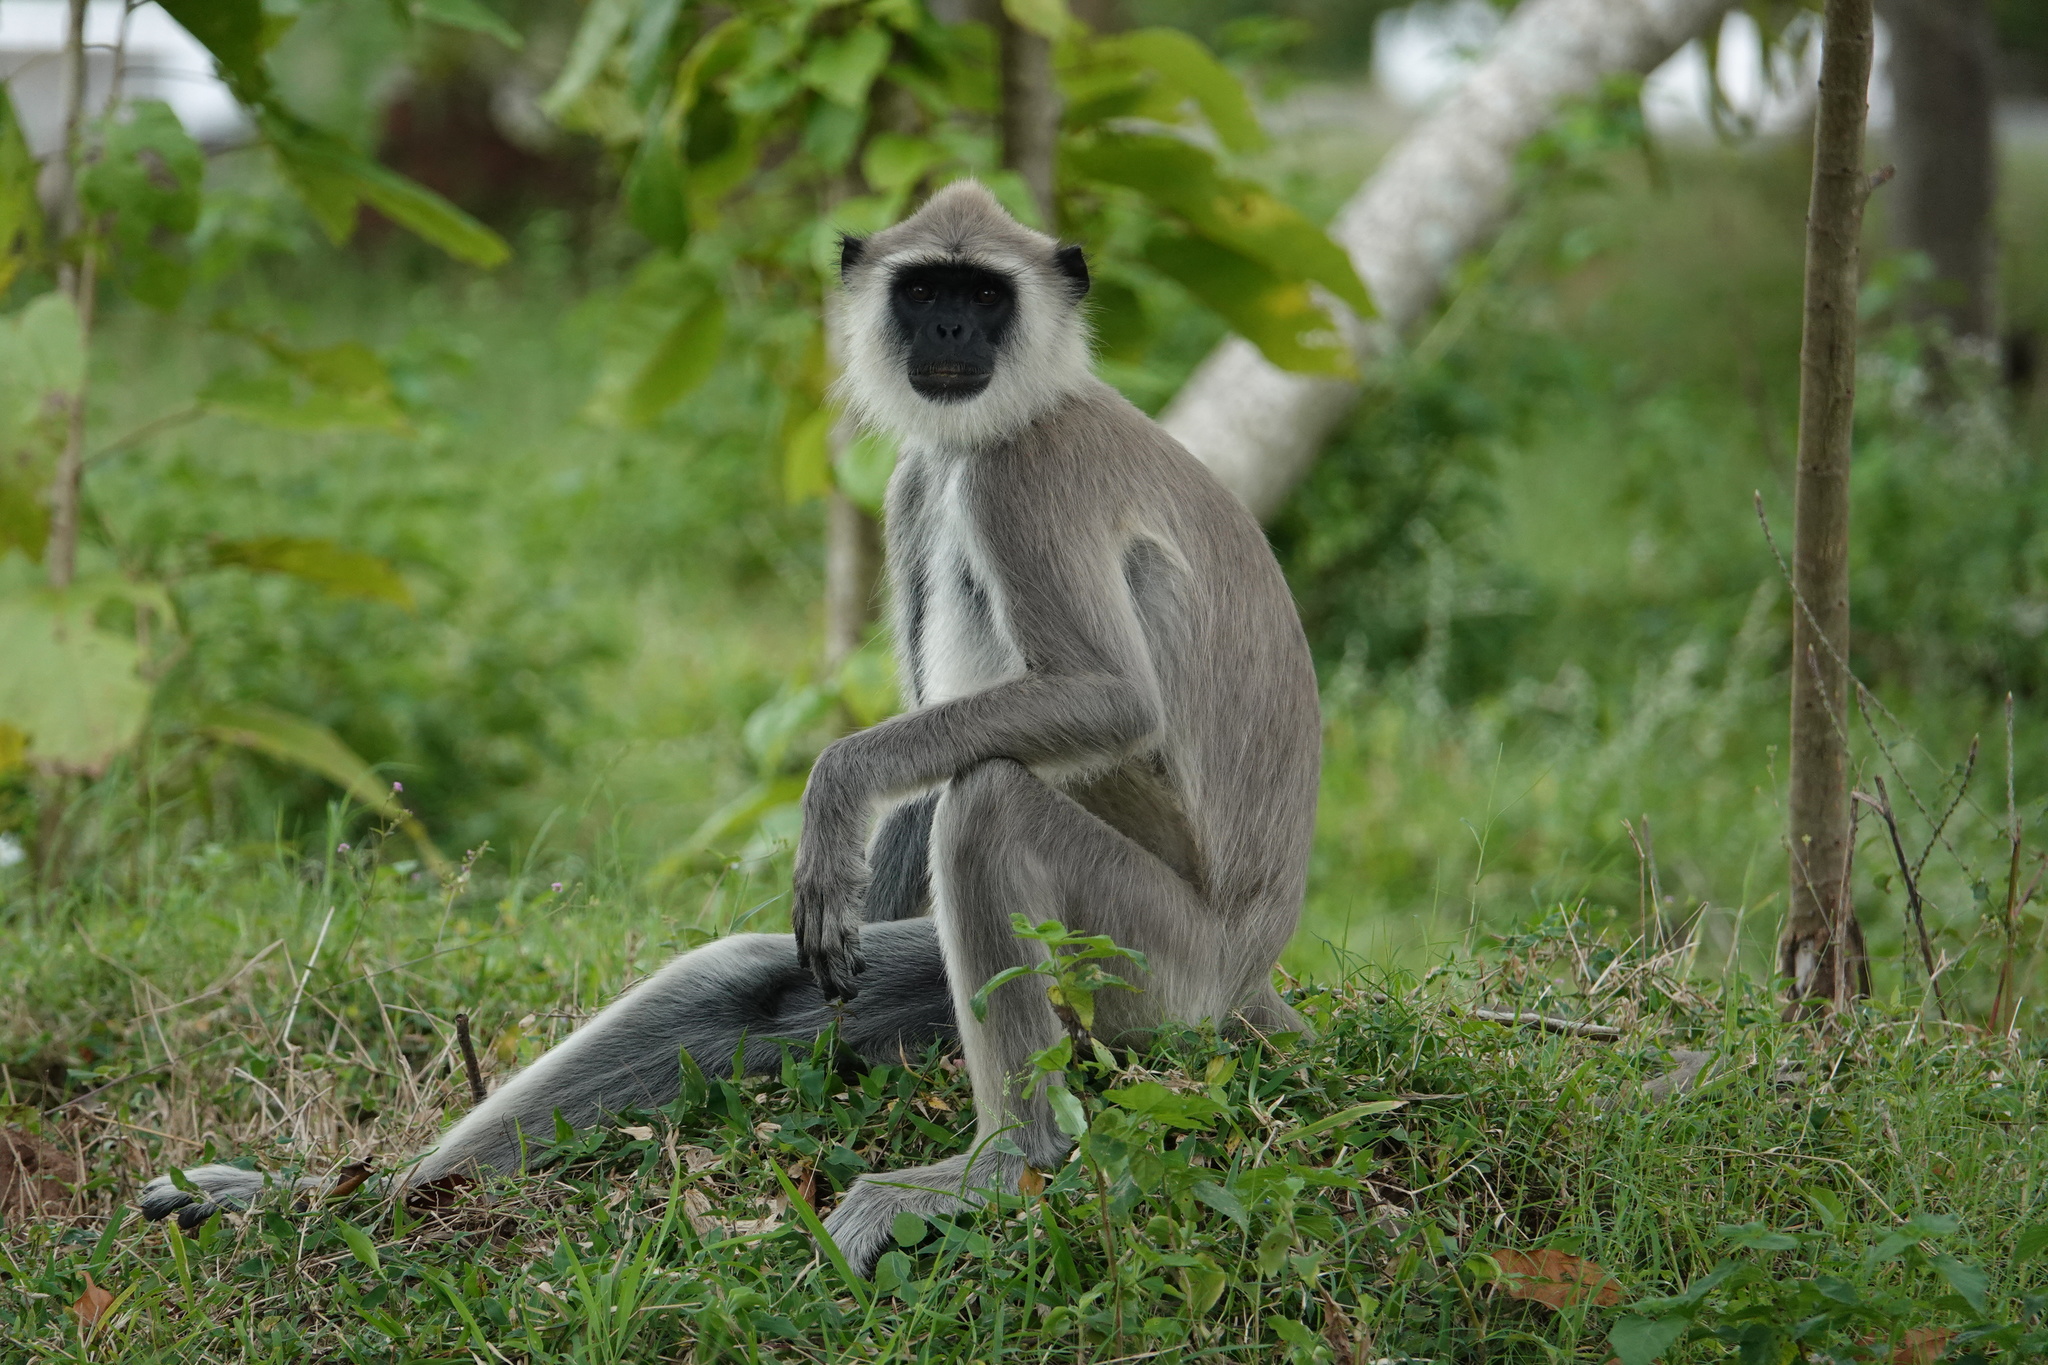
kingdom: Animalia
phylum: Chordata
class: Mammalia
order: Primates
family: Cercopithecidae
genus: Semnopithecus
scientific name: Semnopithecus priam
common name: Tufted gray langur
